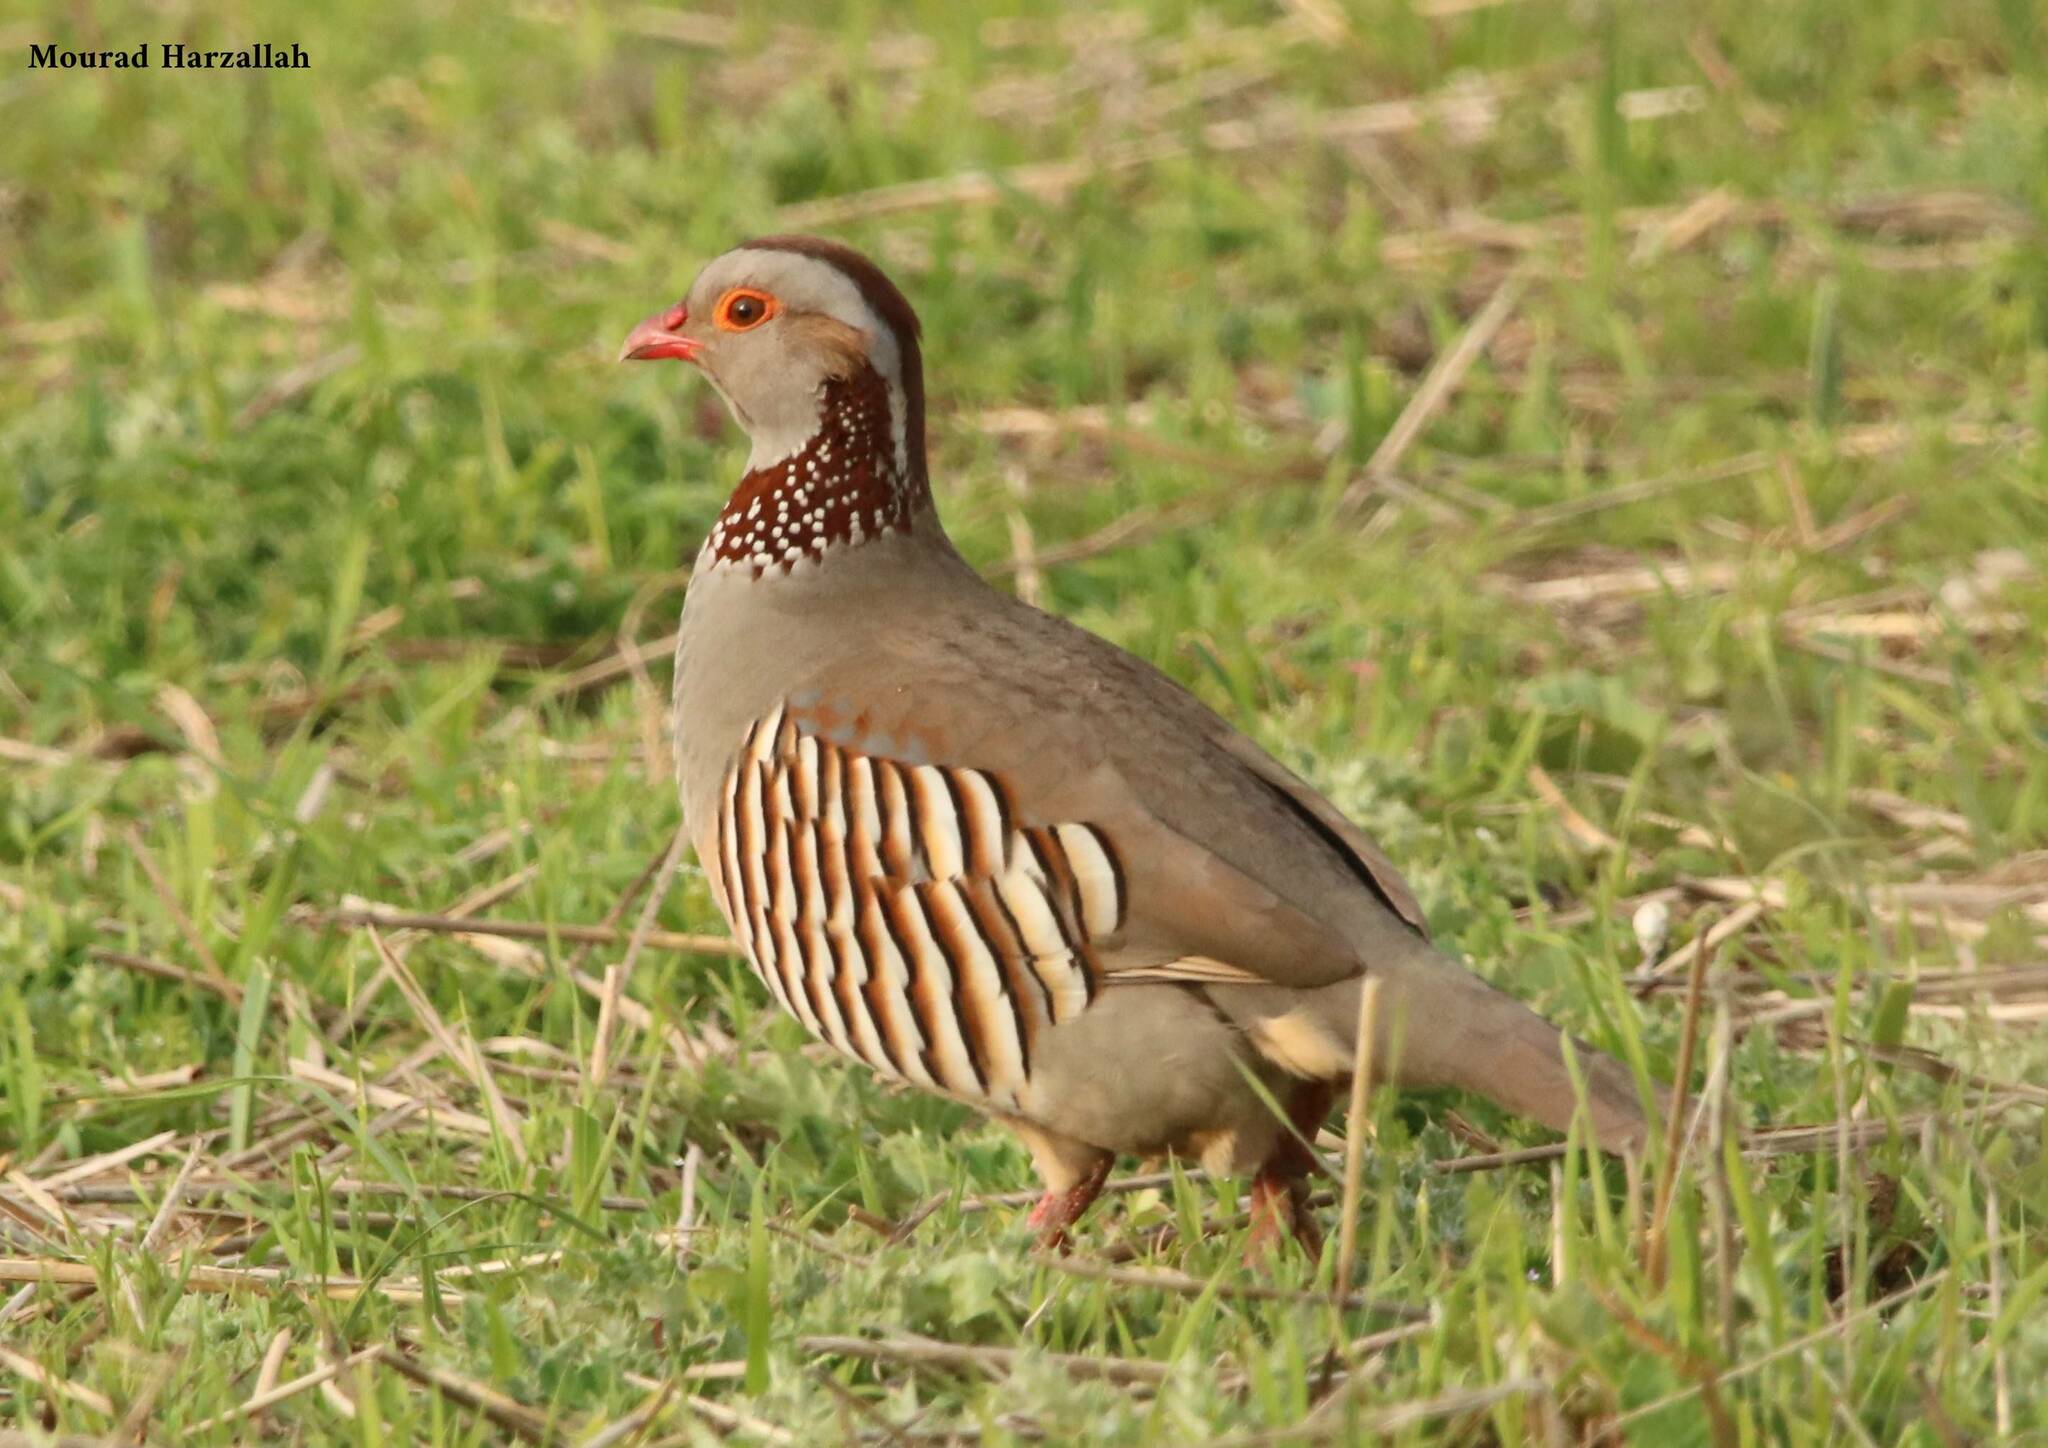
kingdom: Animalia
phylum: Chordata
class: Aves
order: Galliformes
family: Phasianidae
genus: Alectoris
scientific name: Alectoris barbara
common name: Barbary partridge
